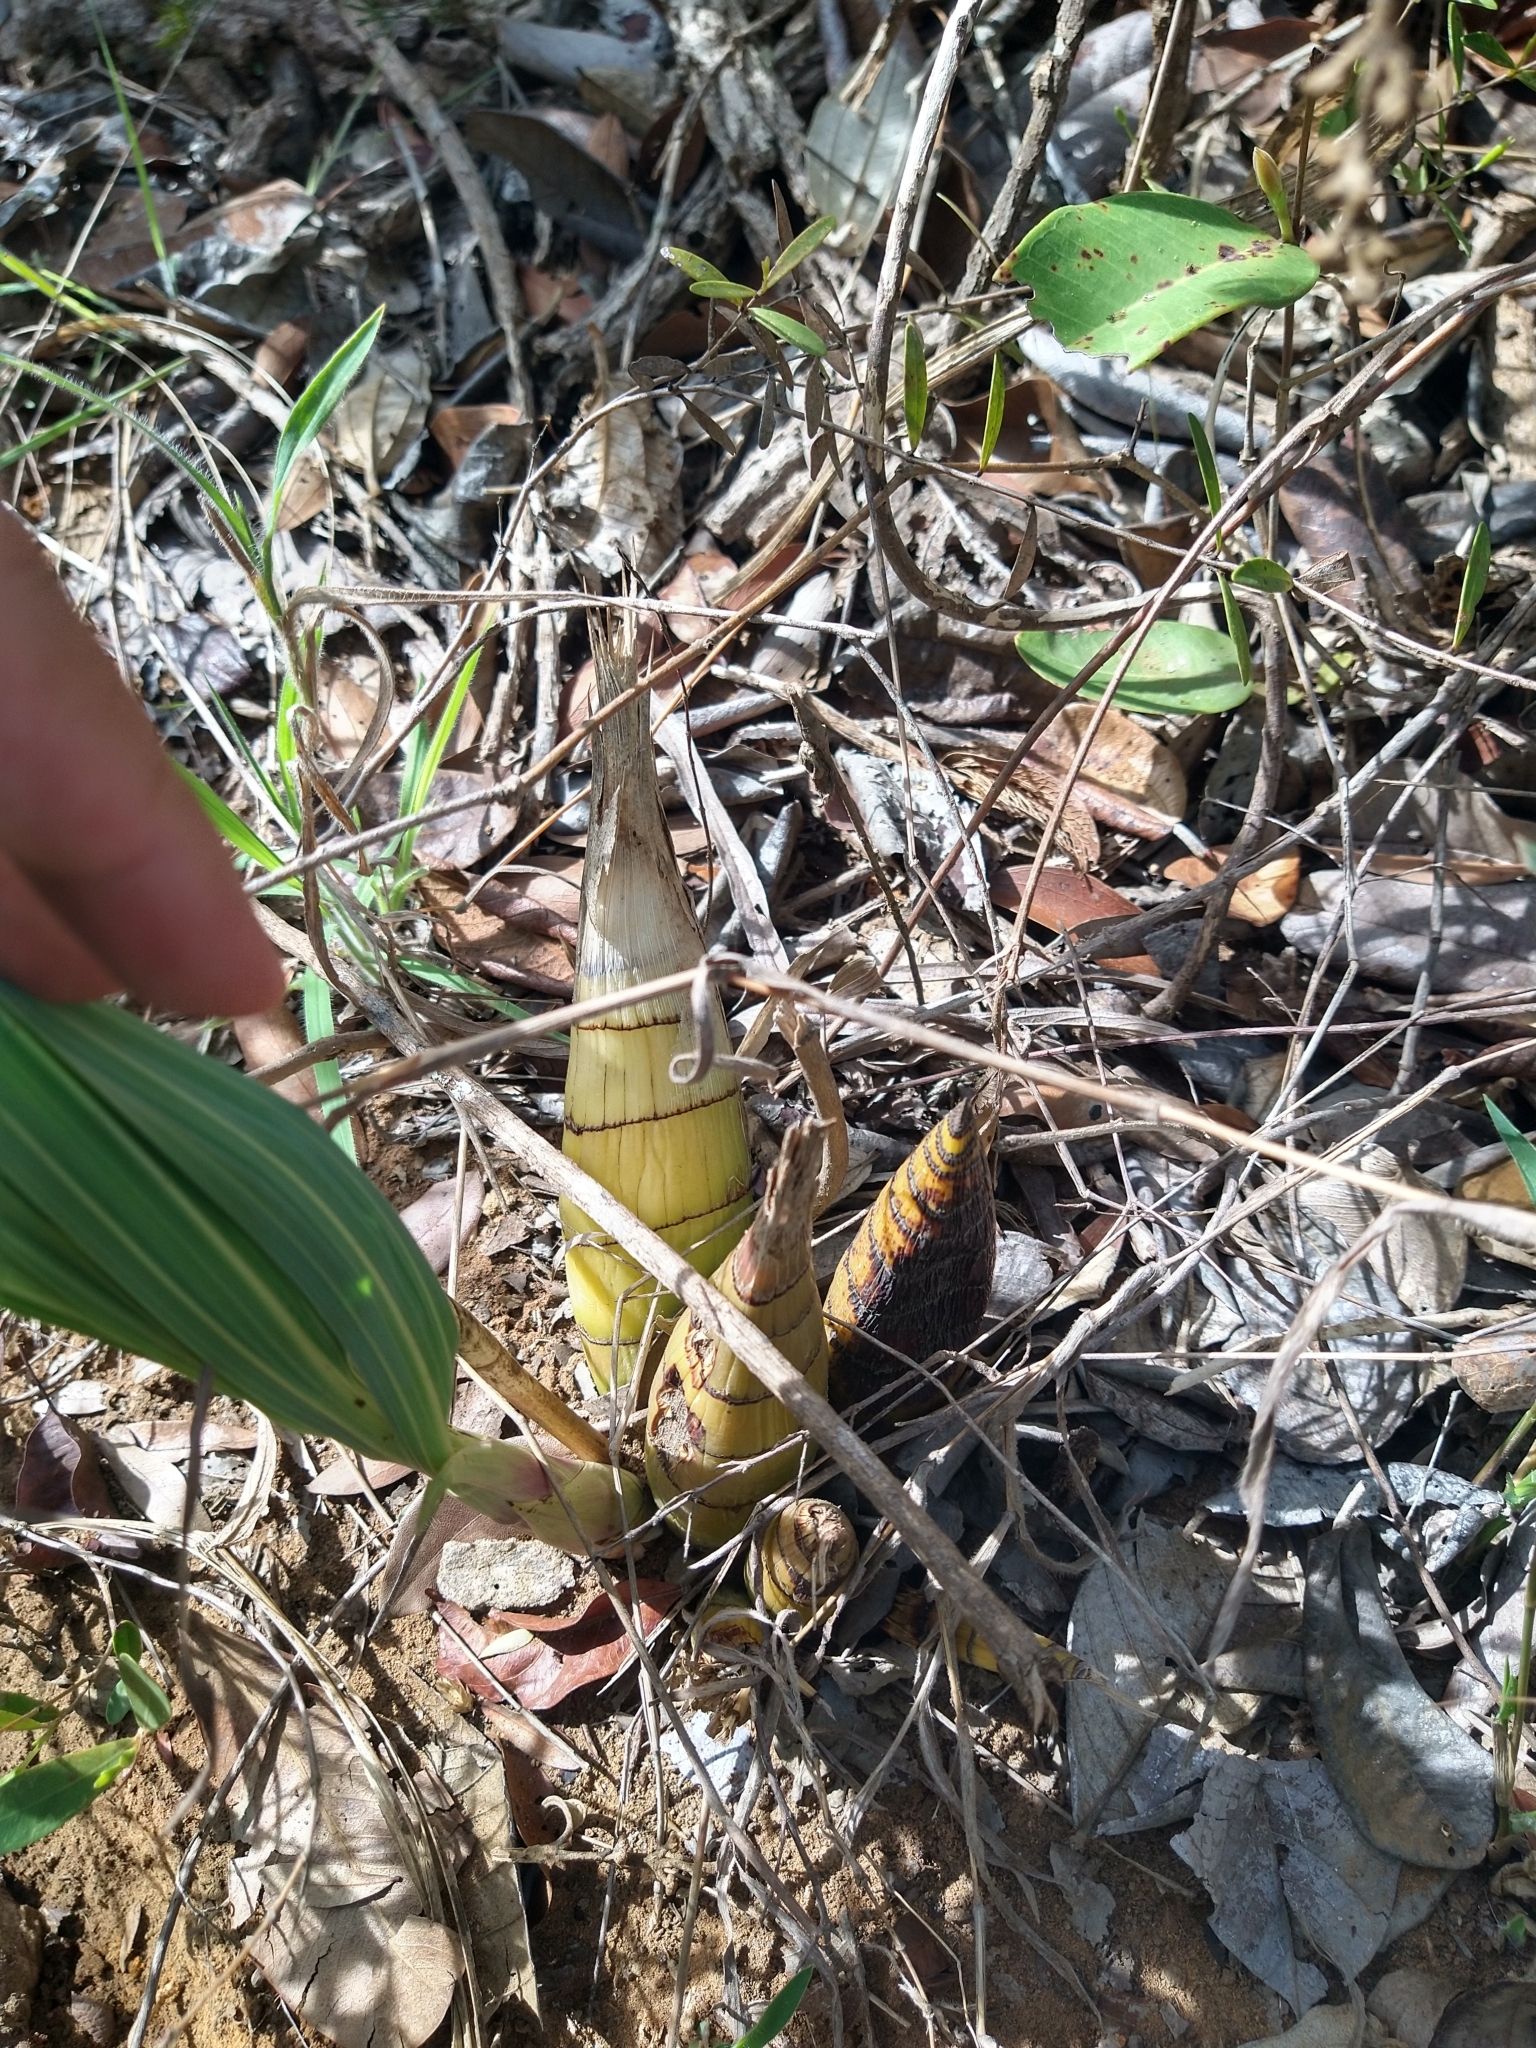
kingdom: Plantae
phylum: Tracheophyta
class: Liliopsida
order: Asparagales
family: Orchidaceae
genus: Cyrtopodium
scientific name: Cyrtopodium eugenii
